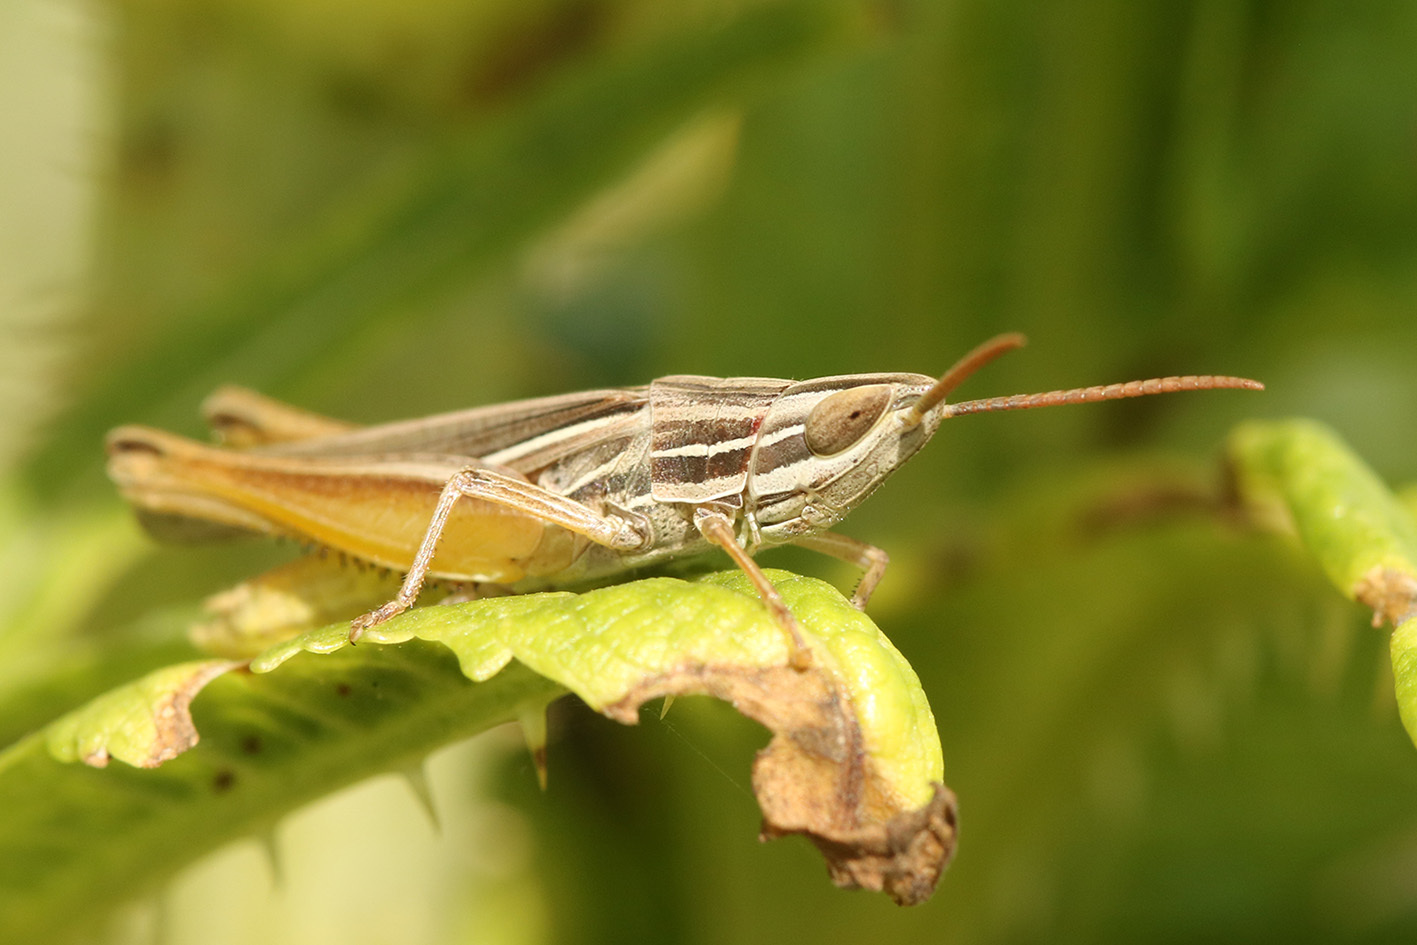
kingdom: Animalia
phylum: Arthropoda
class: Insecta
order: Orthoptera
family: Acrididae
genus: Sinipta
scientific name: Sinipta dalmani
